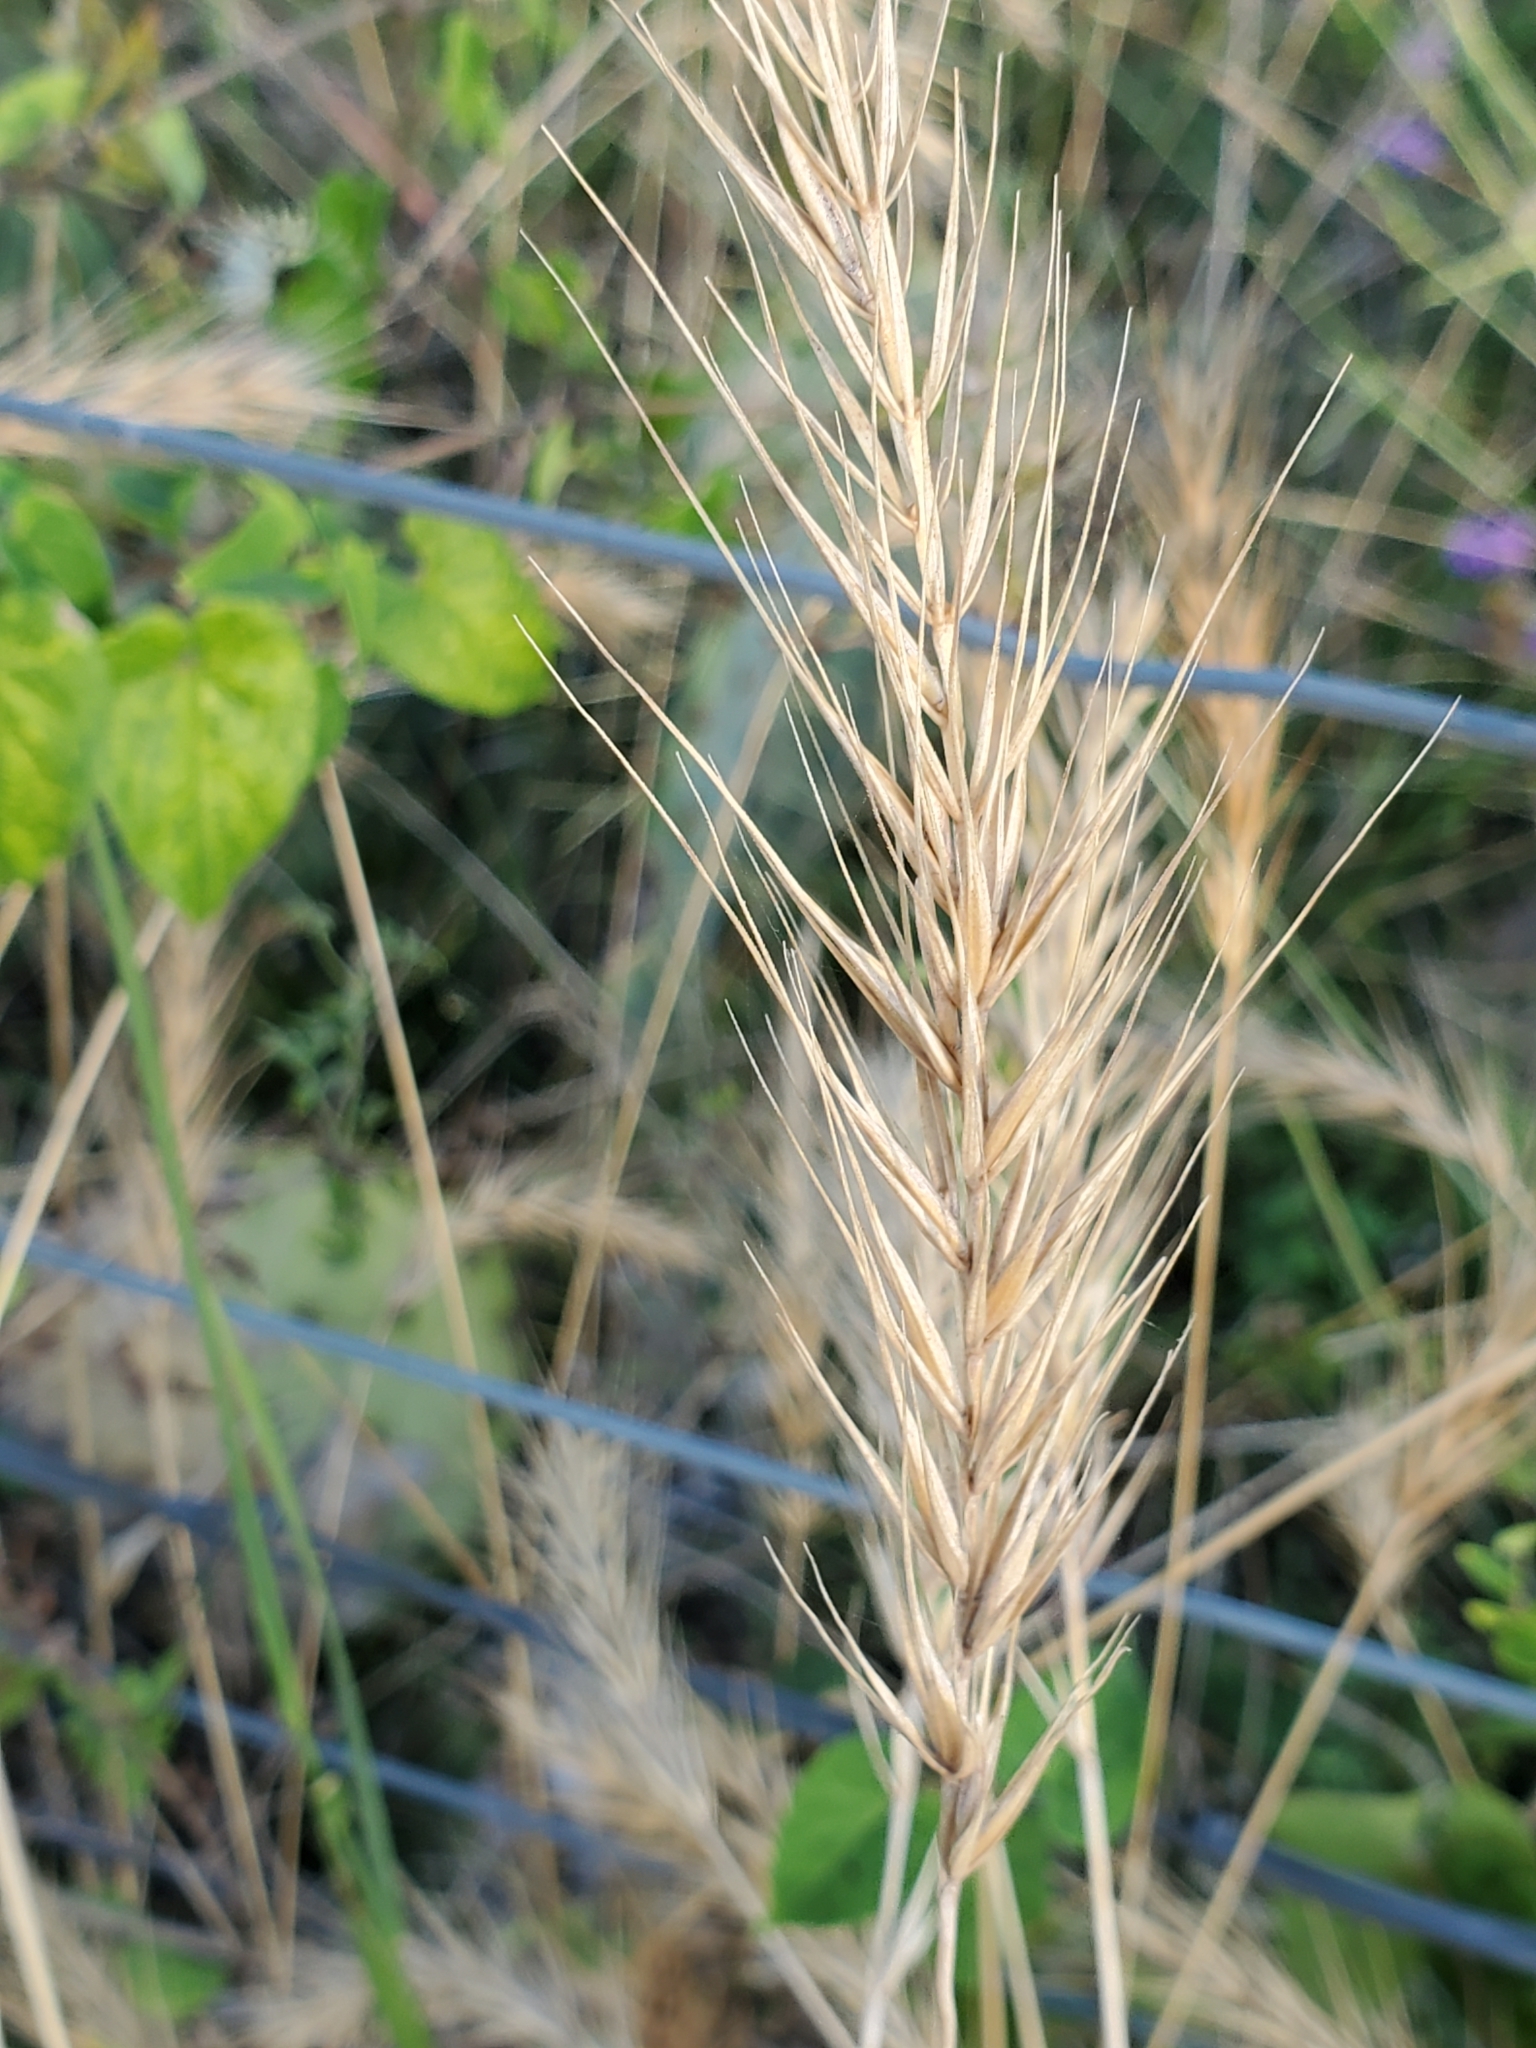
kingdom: Plantae
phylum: Tracheophyta
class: Liliopsida
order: Poales
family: Poaceae
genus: Elymus
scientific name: Elymus canadensis
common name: Canada wild rye
